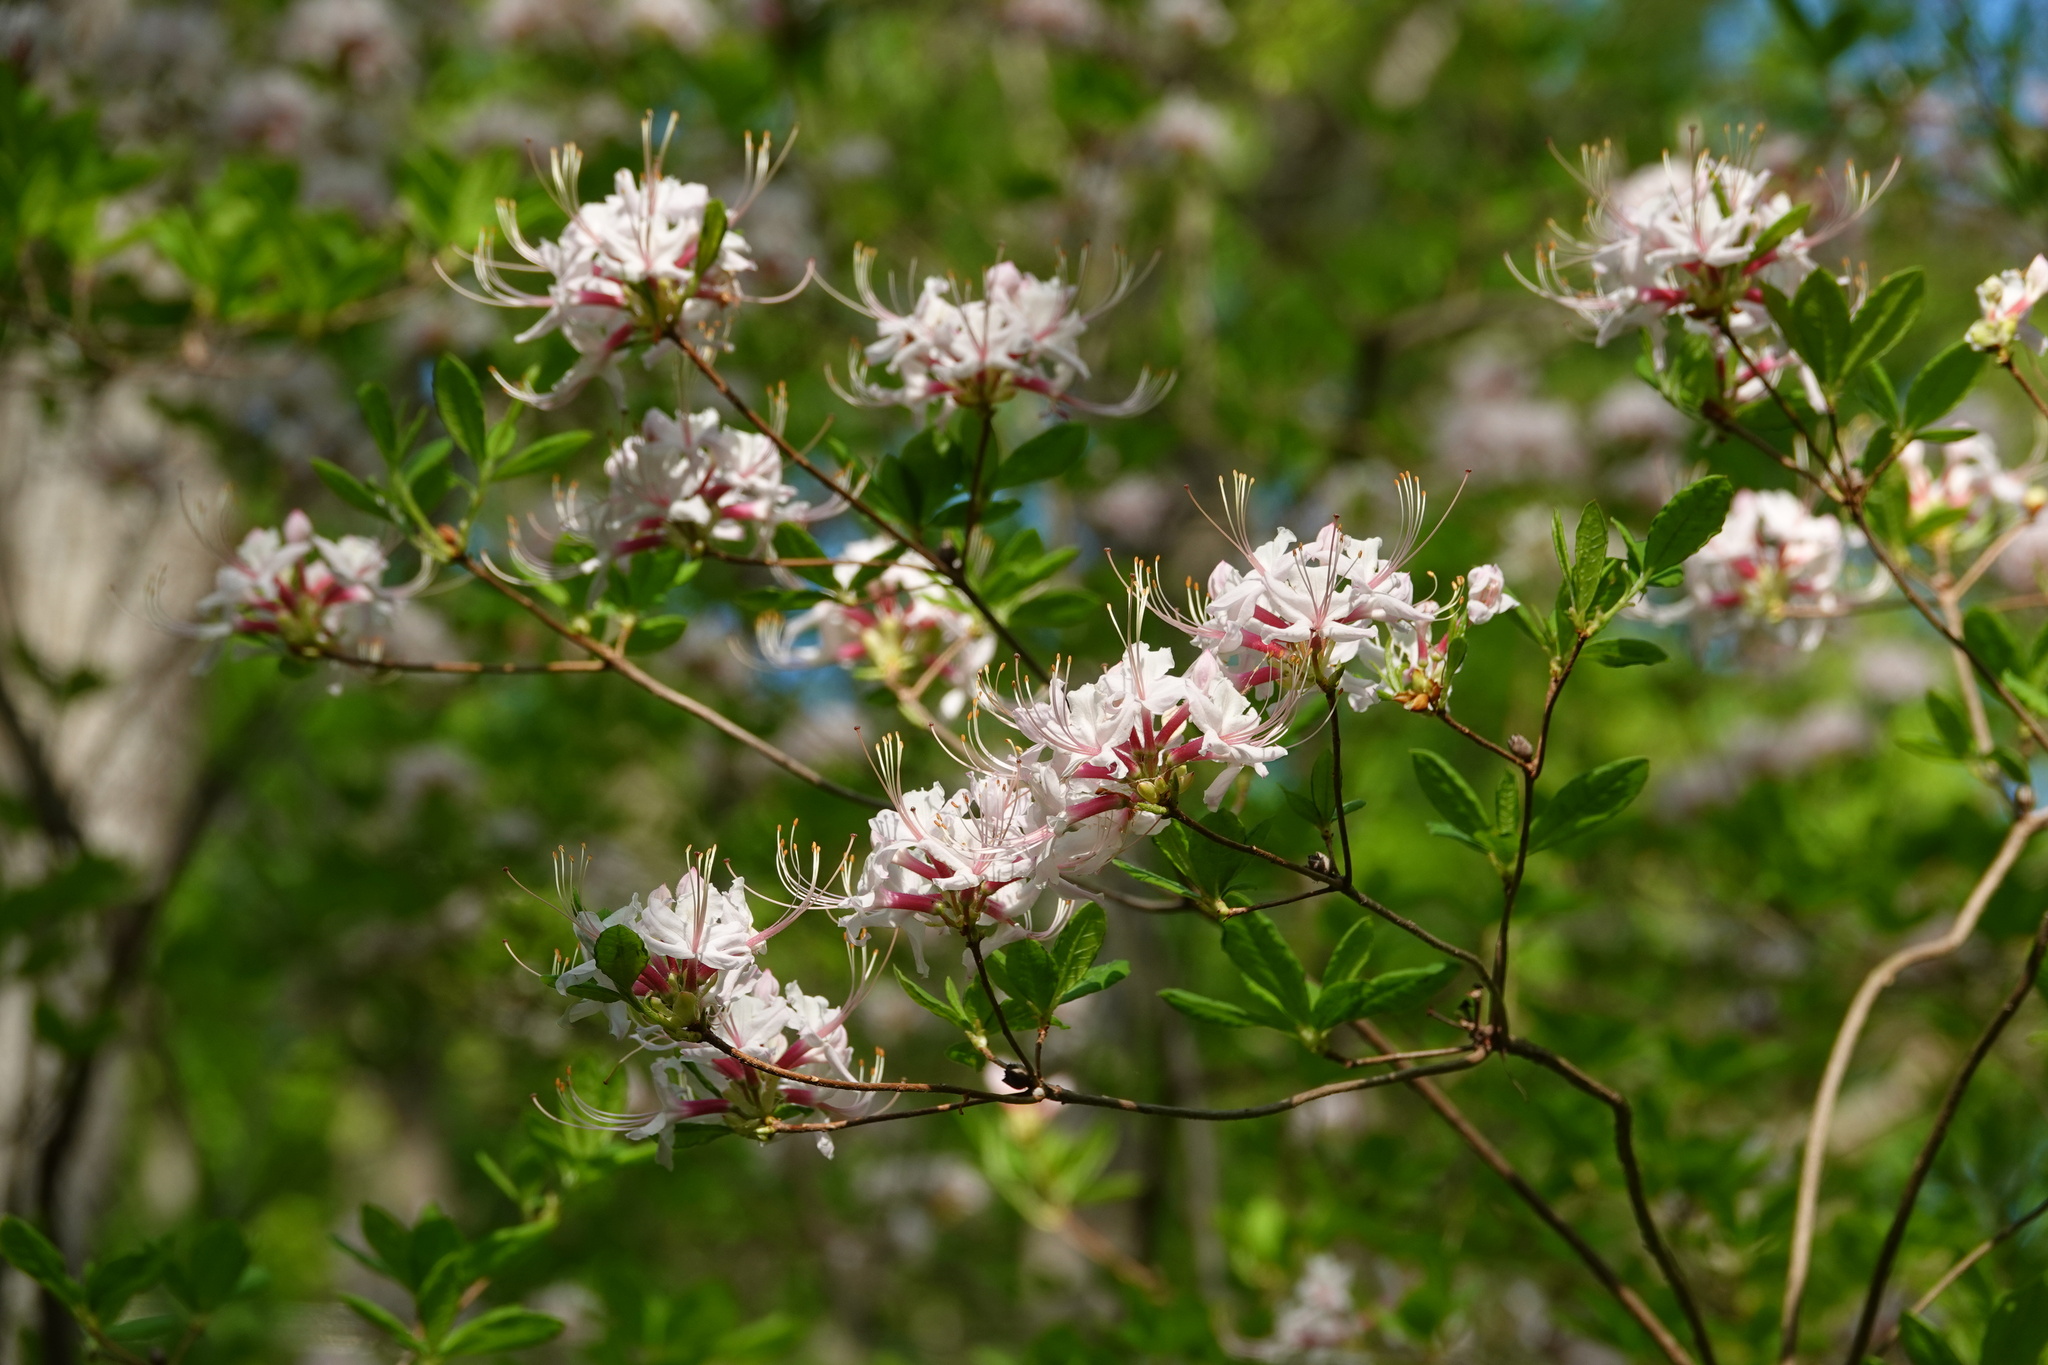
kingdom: Plantae
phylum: Tracheophyta
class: Magnoliopsida
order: Ericales
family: Ericaceae
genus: Rhododendron
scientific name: Rhododendron periclymenoides
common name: Election-pink
